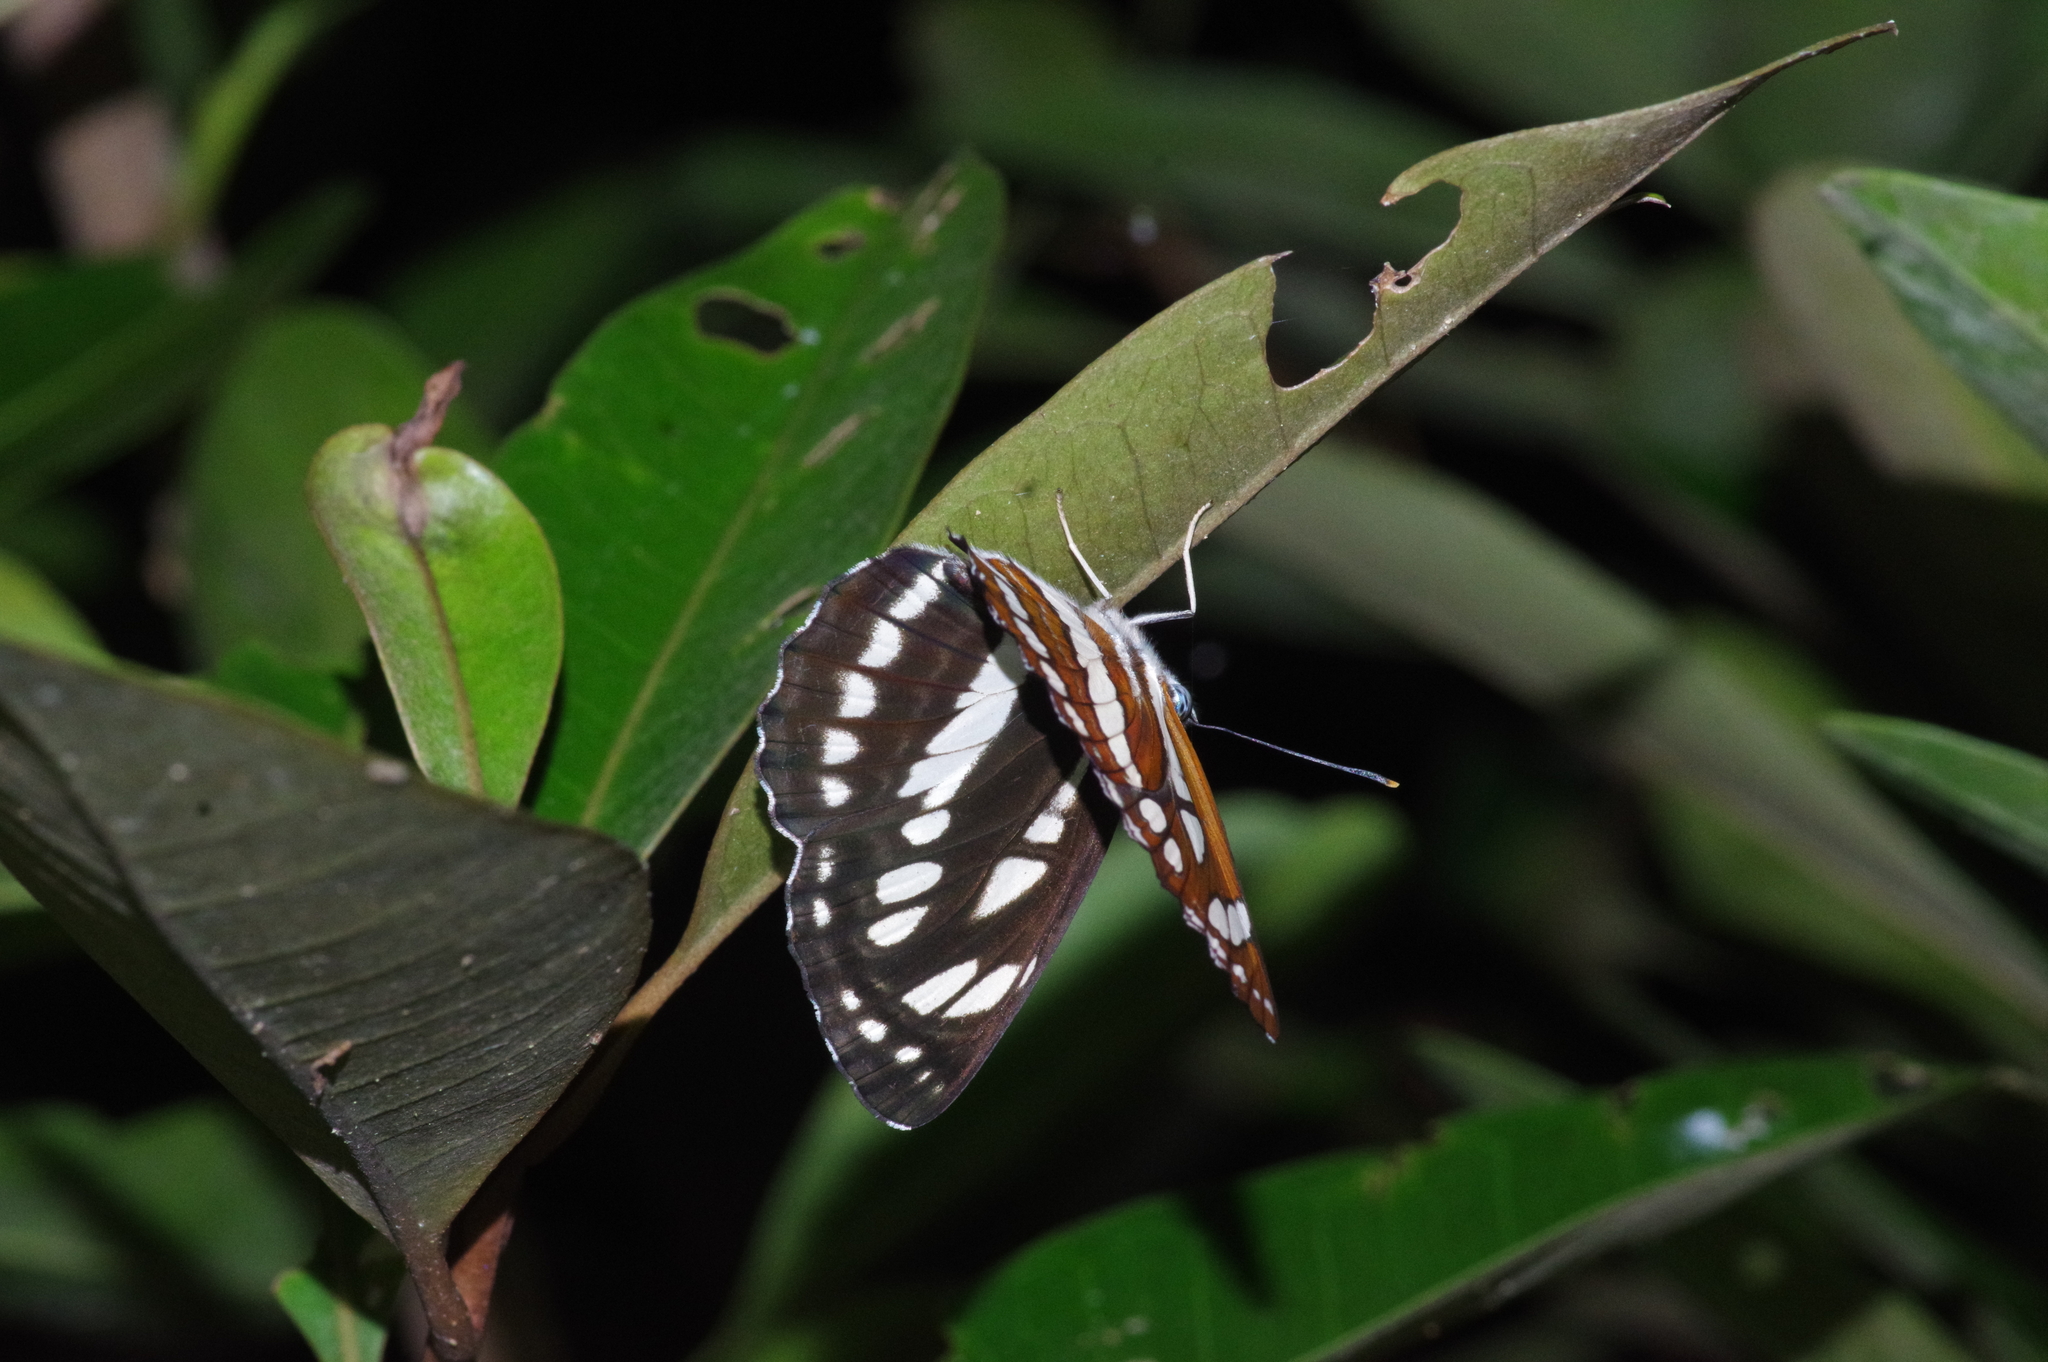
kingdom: Animalia
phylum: Arthropoda
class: Insecta
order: Lepidoptera
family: Nymphalidae
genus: Neptis
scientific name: Neptis hylas
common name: Common sailer
